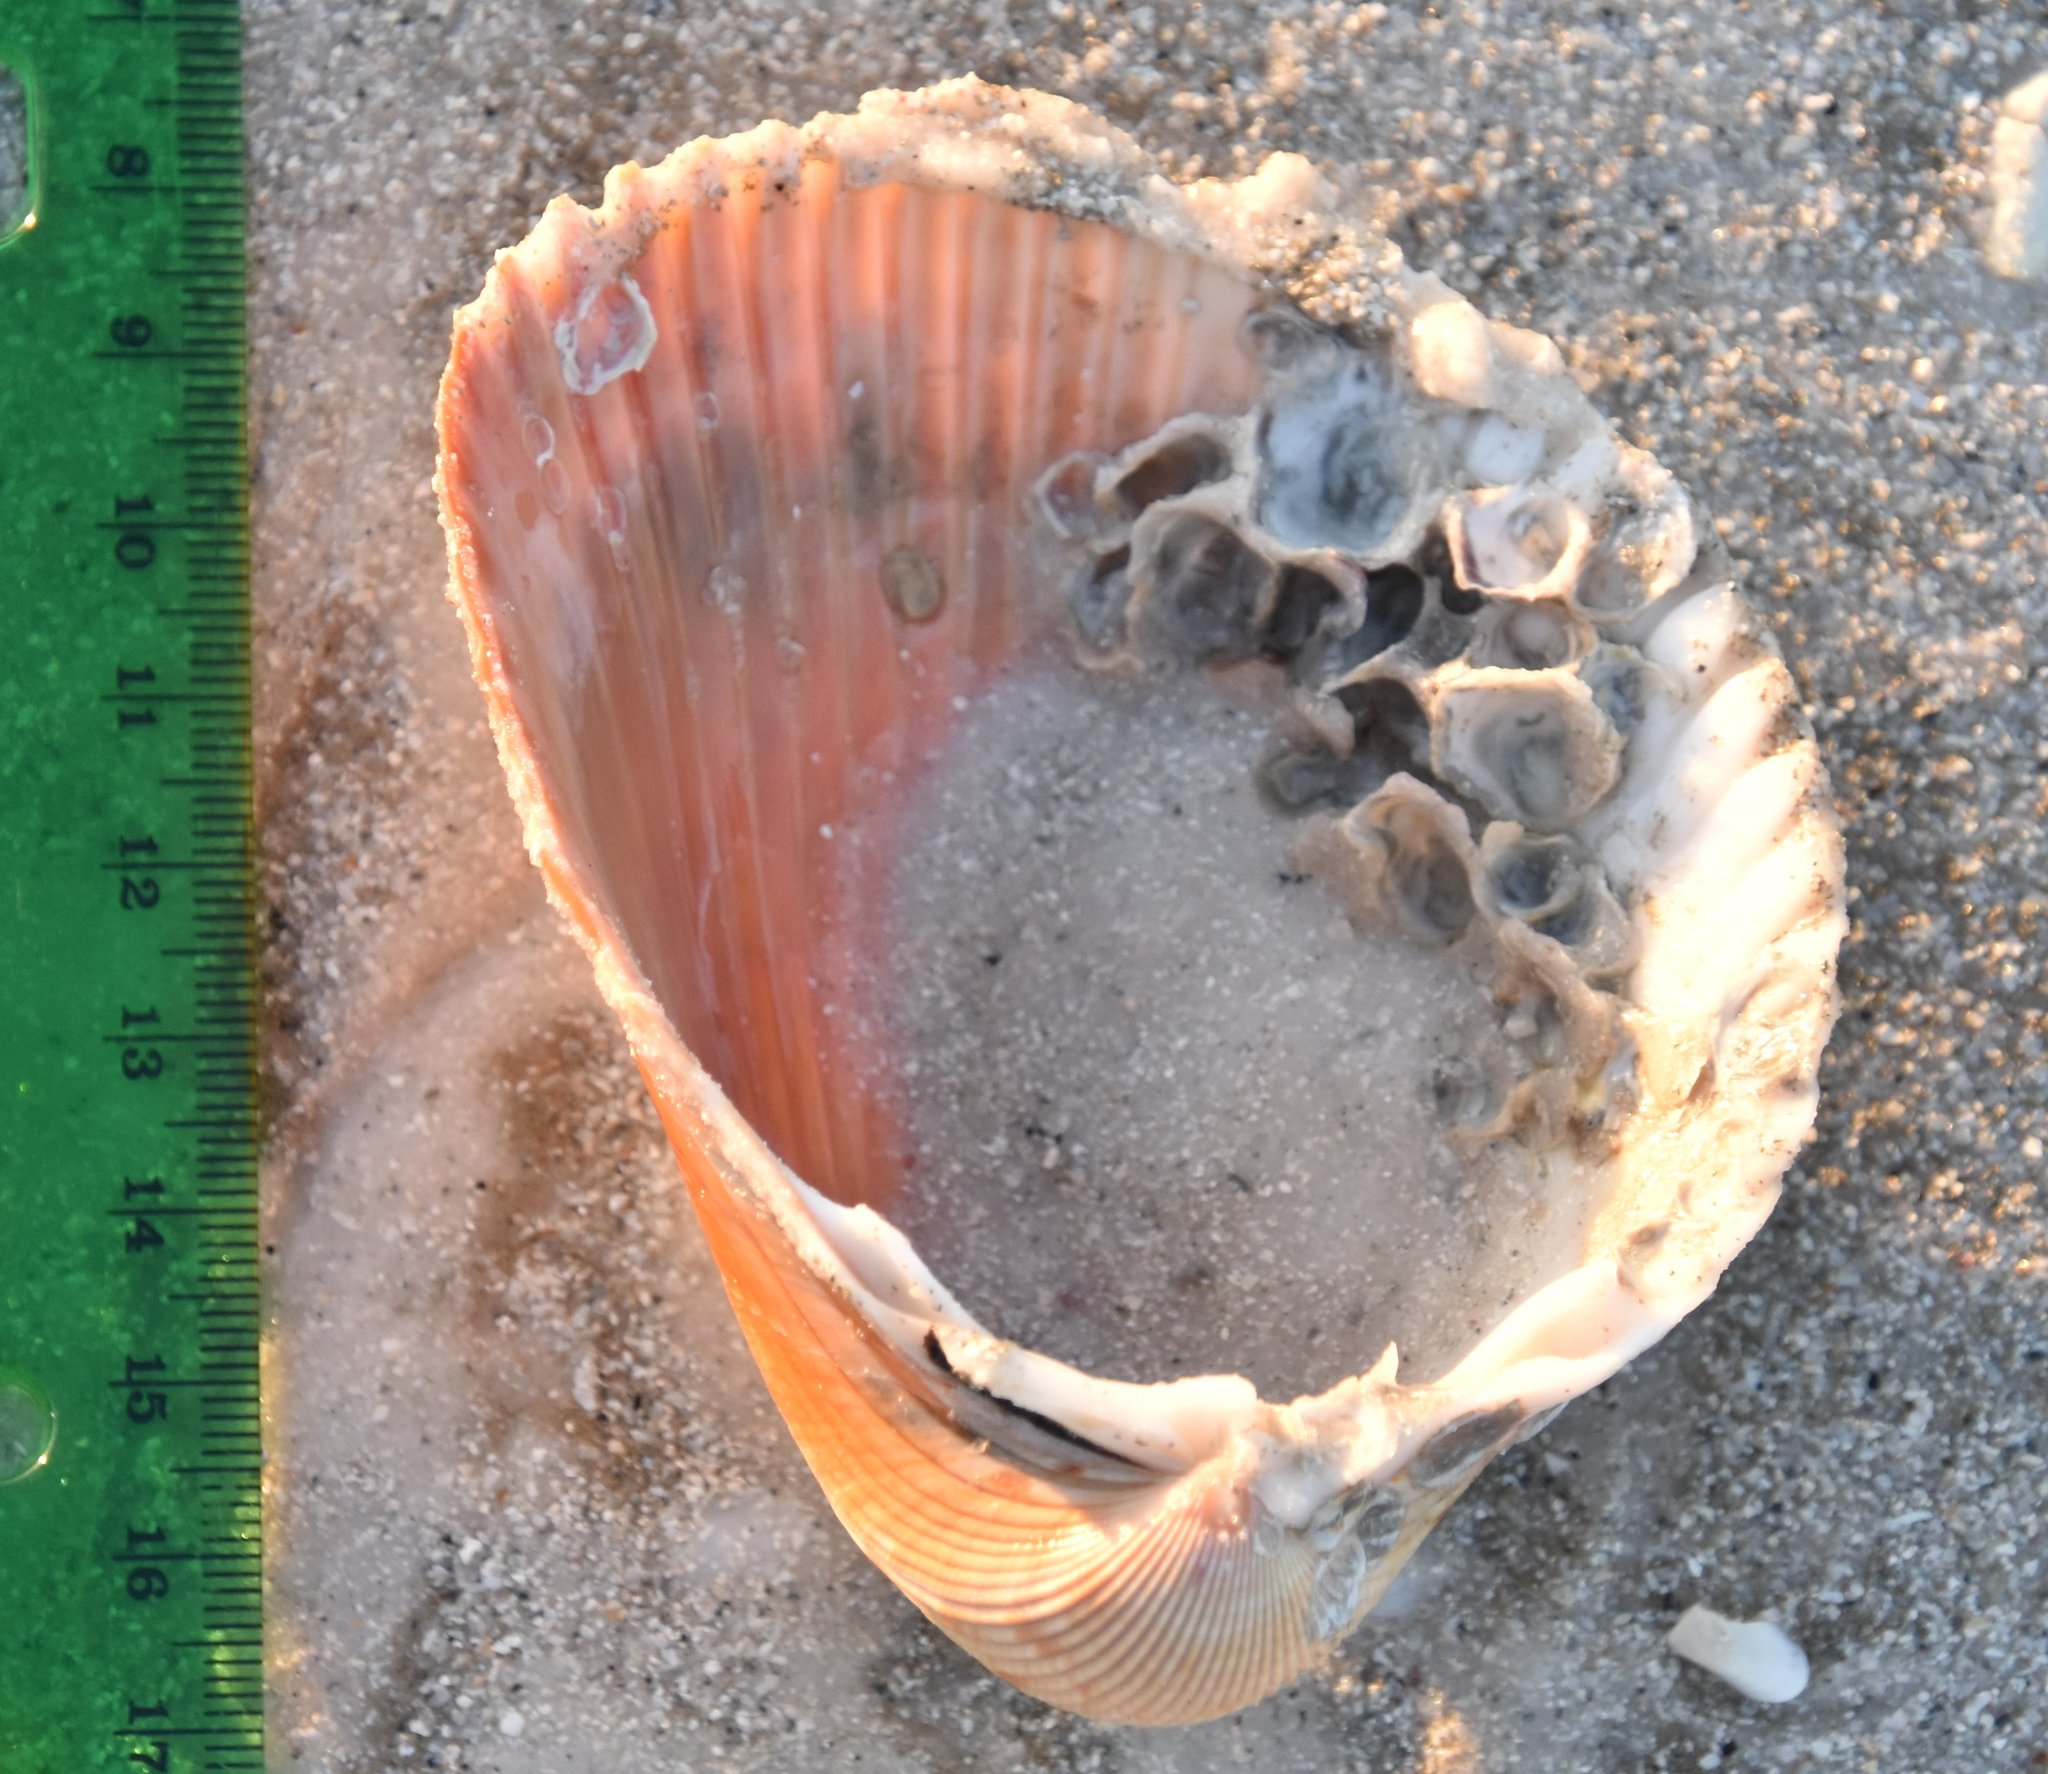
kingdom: Animalia
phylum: Mollusca
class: Bivalvia
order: Cardiida
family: Cardiidae
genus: Dinocardium
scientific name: Dinocardium robustum
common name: Atlantic giant cockle
